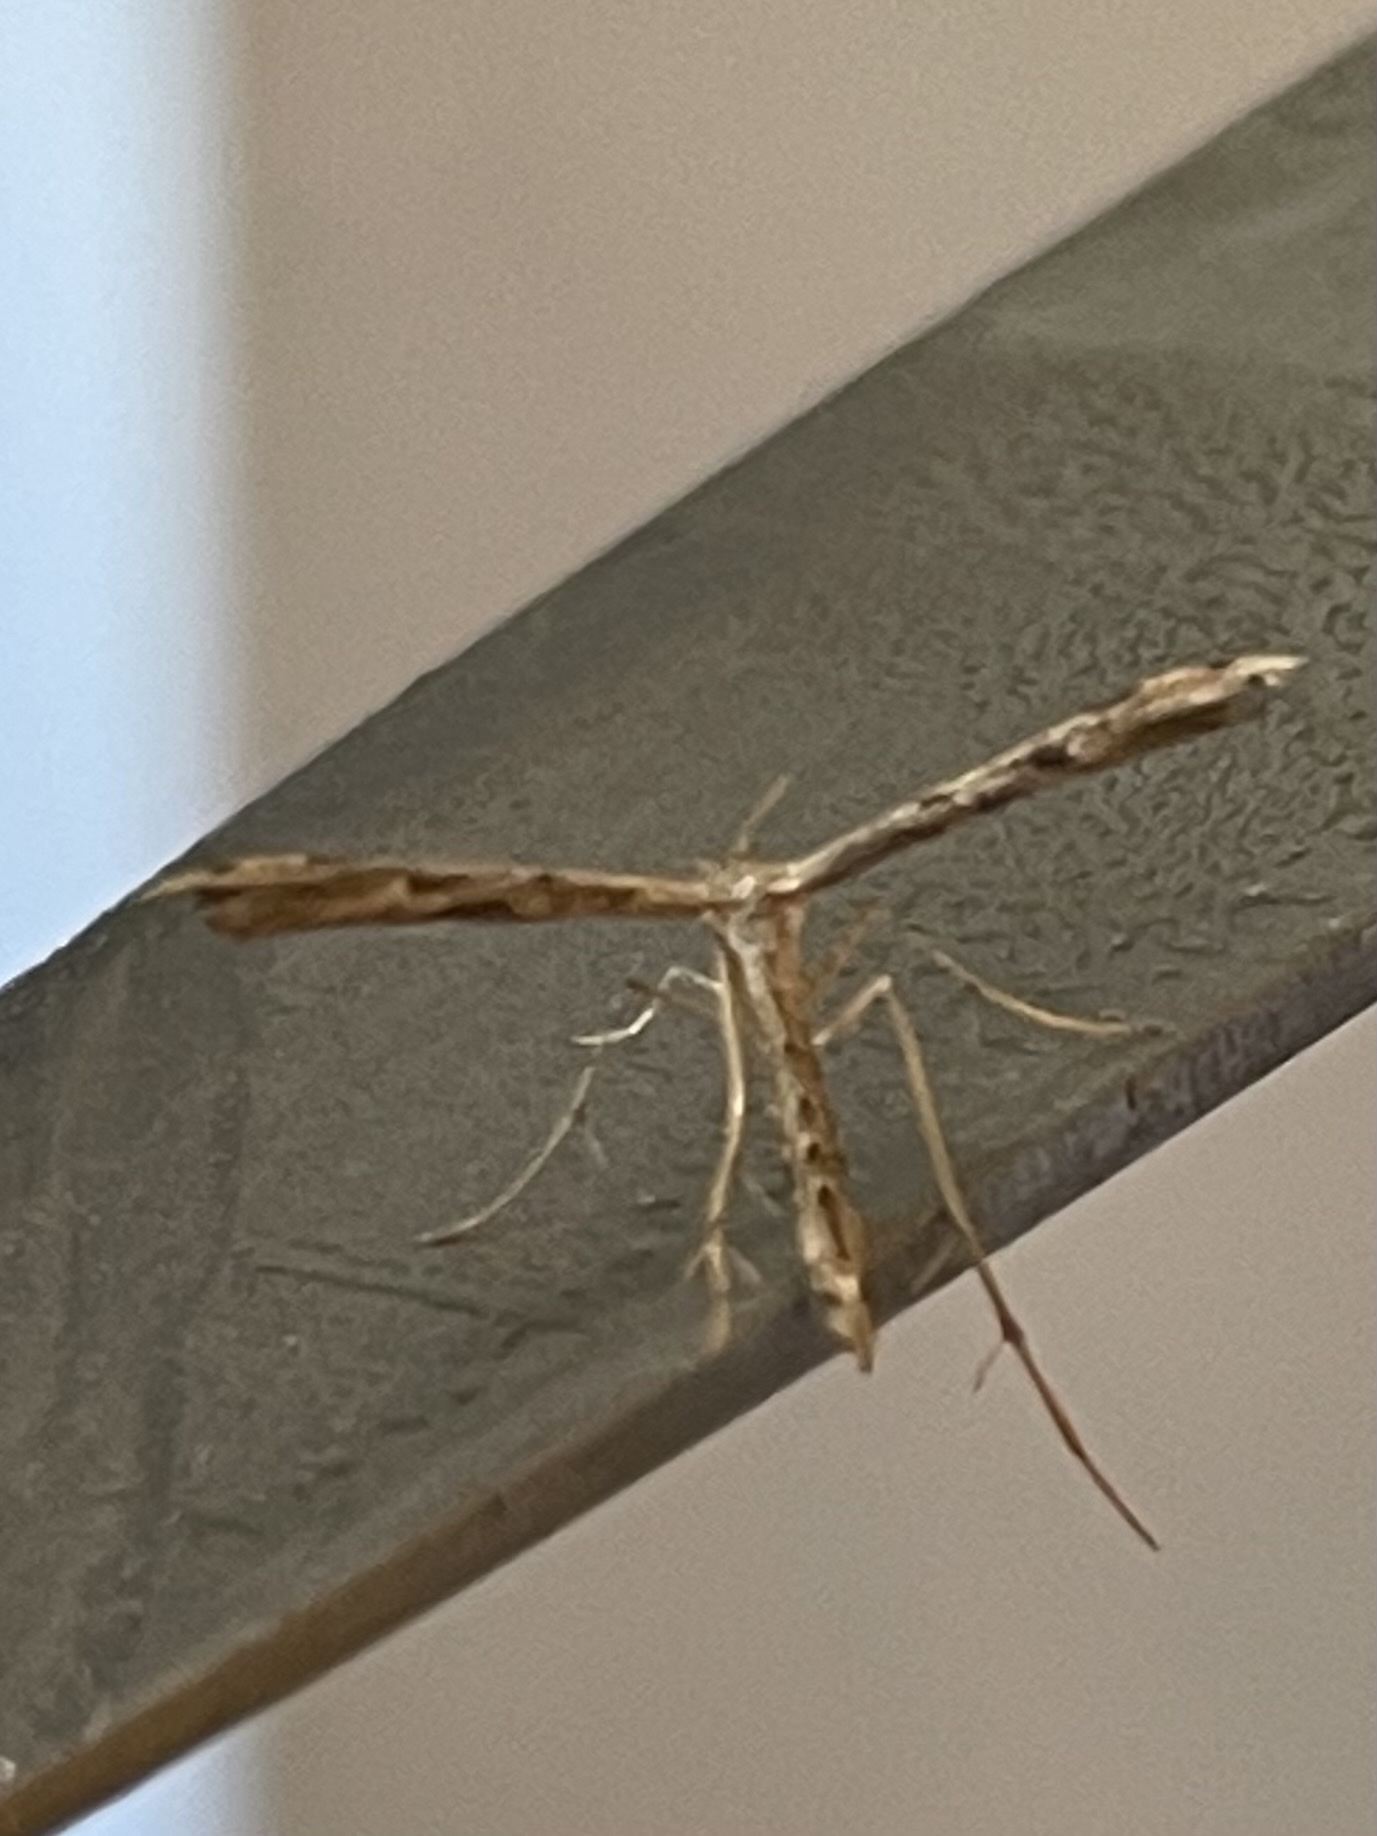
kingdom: Animalia
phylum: Arthropoda
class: Insecta
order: Lepidoptera
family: Pterophoridae
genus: Adaina
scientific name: Adaina ambrosiae
